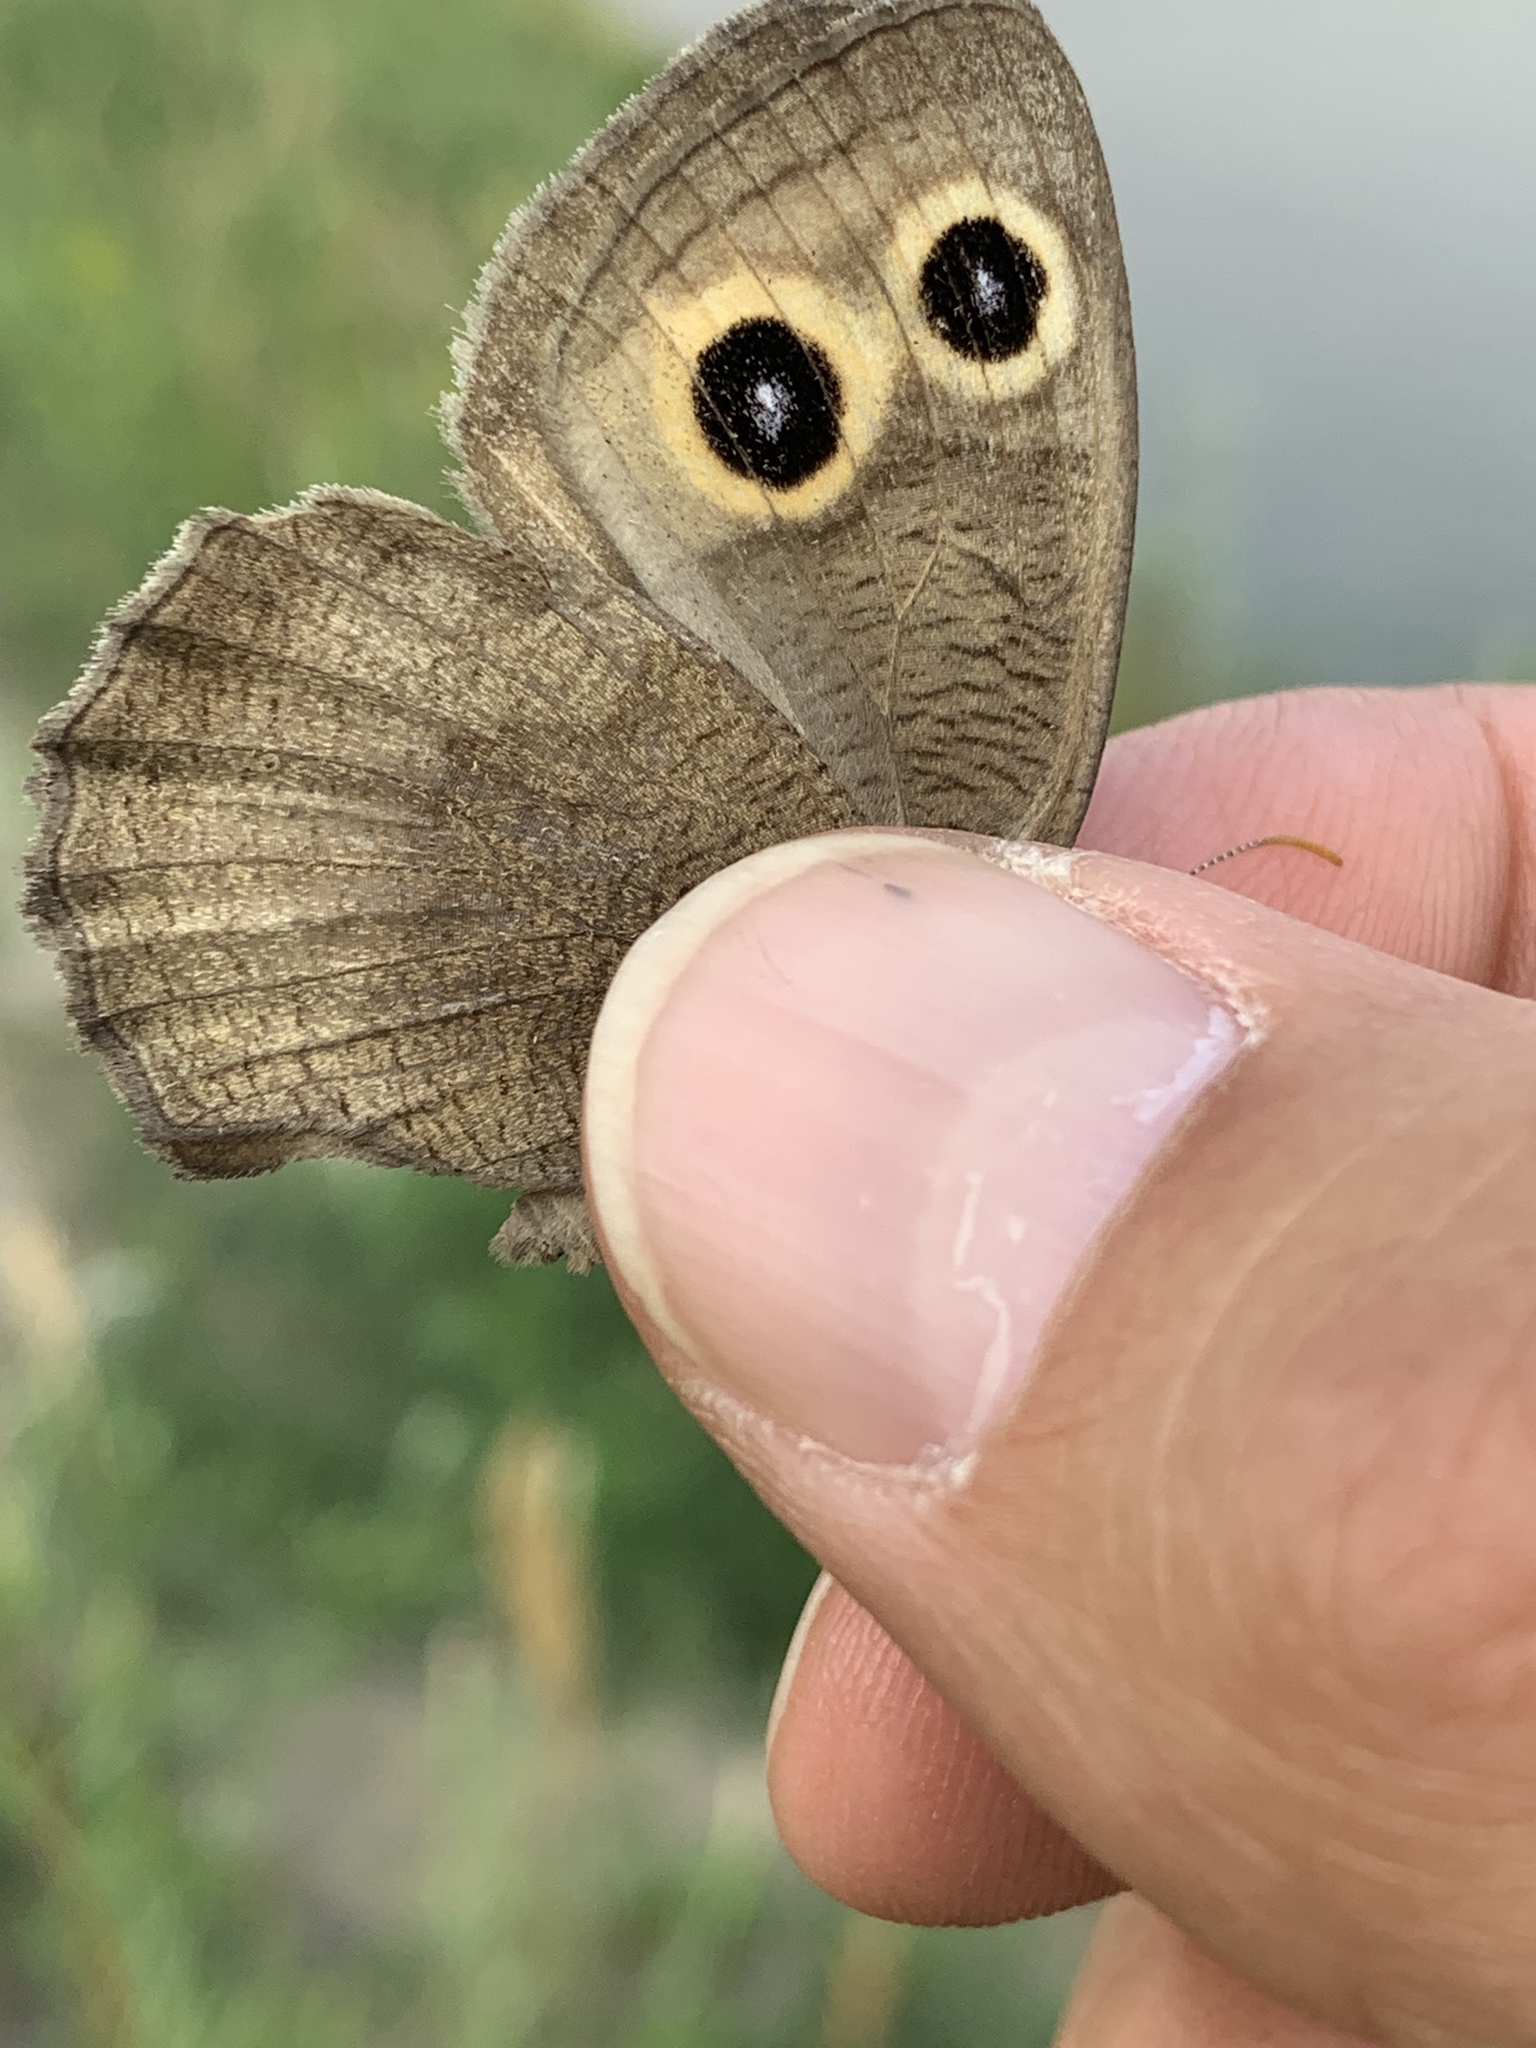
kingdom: Animalia
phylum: Arthropoda
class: Insecta
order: Lepidoptera
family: Nymphalidae
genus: Cercyonis
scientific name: Cercyonis pegala
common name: Common wood-nymph
